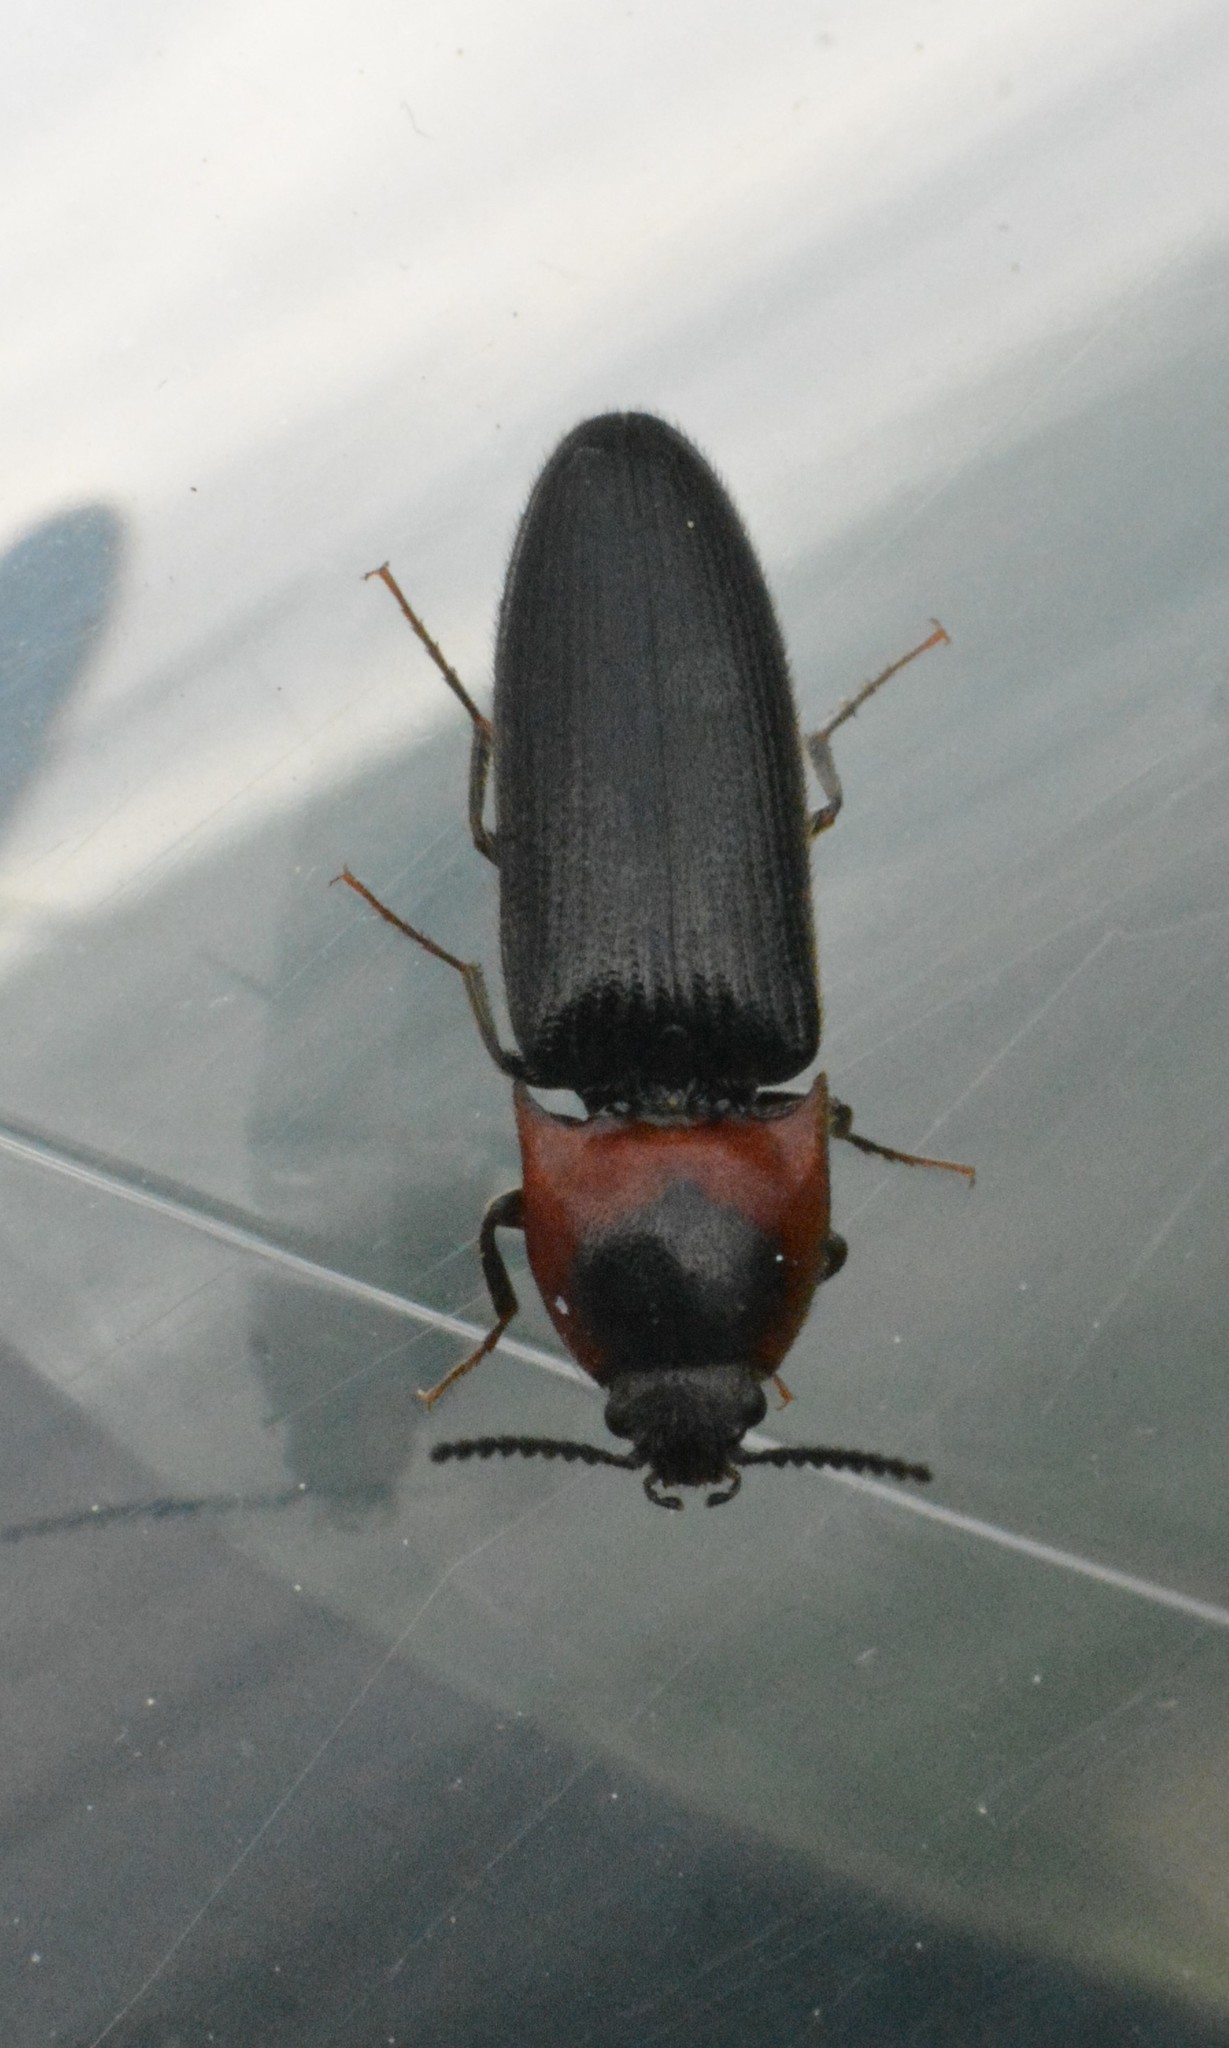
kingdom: Animalia
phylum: Arthropoda
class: Insecta
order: Coleoptera
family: Elateridae
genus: Ampedus
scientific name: Ampedus rubricus
